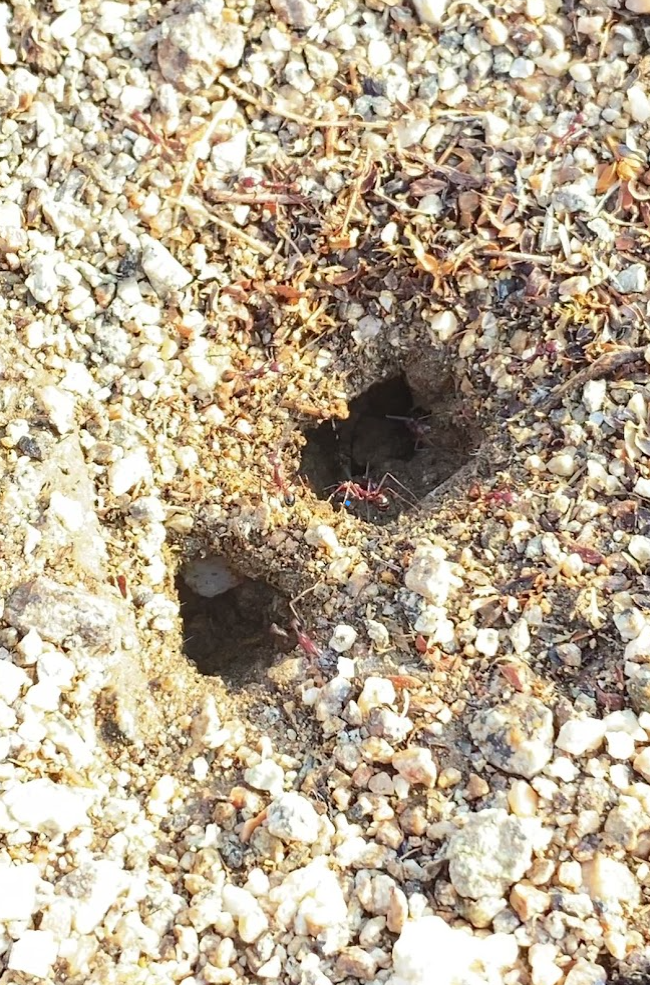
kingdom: Animalia
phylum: Arthropoda
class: Insecta
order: Hymenoptera
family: Formicidae
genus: Novomessor
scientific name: Novomessor cockerelli
